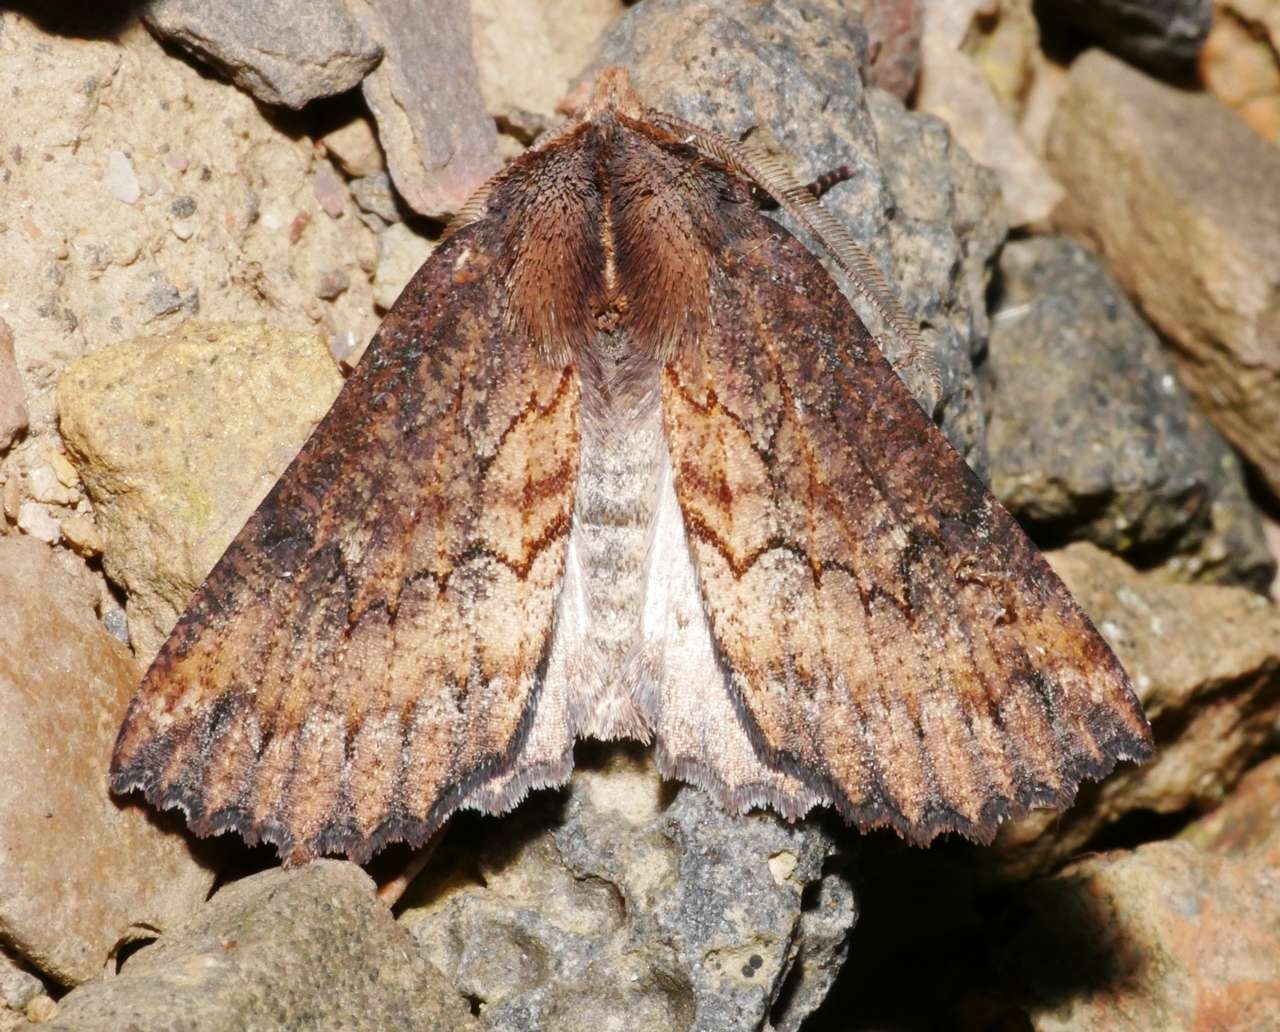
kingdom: Animalia
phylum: Arthropoda
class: Insecta
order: Lepidoptera
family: Geometridae
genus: Nisista
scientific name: Nisista serrata
